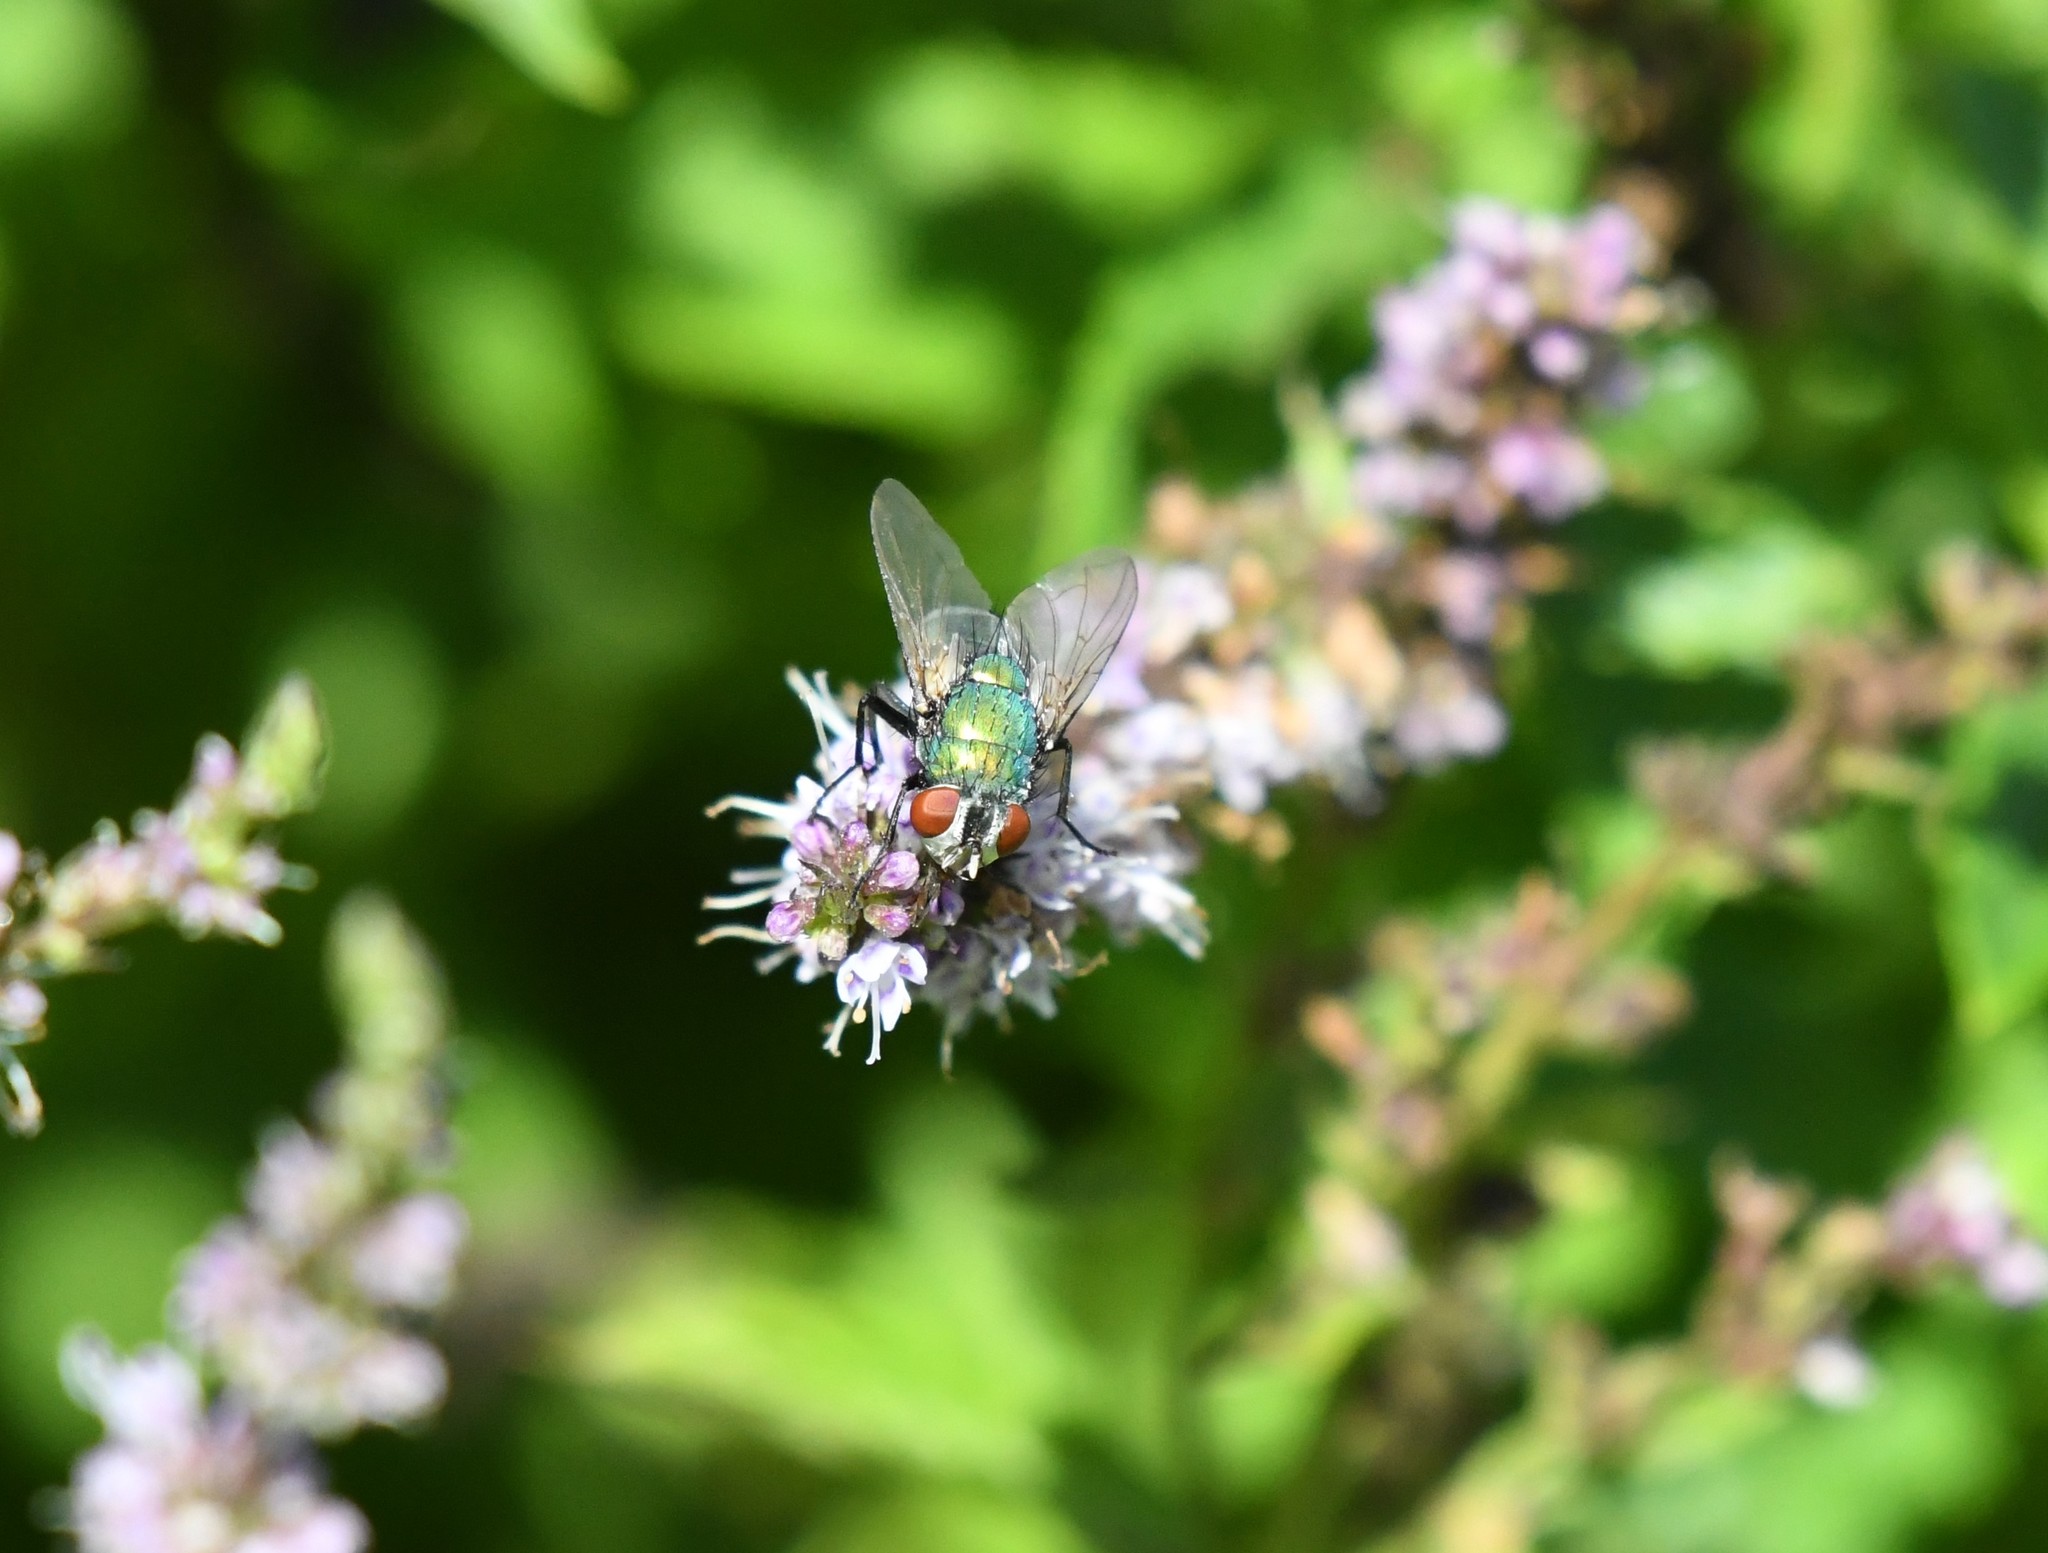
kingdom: Animalia
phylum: Arthropoda
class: Insecta
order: Diptera
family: Calliphoridae
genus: Lucilia
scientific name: Lucilia sericata
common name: Blow fly
